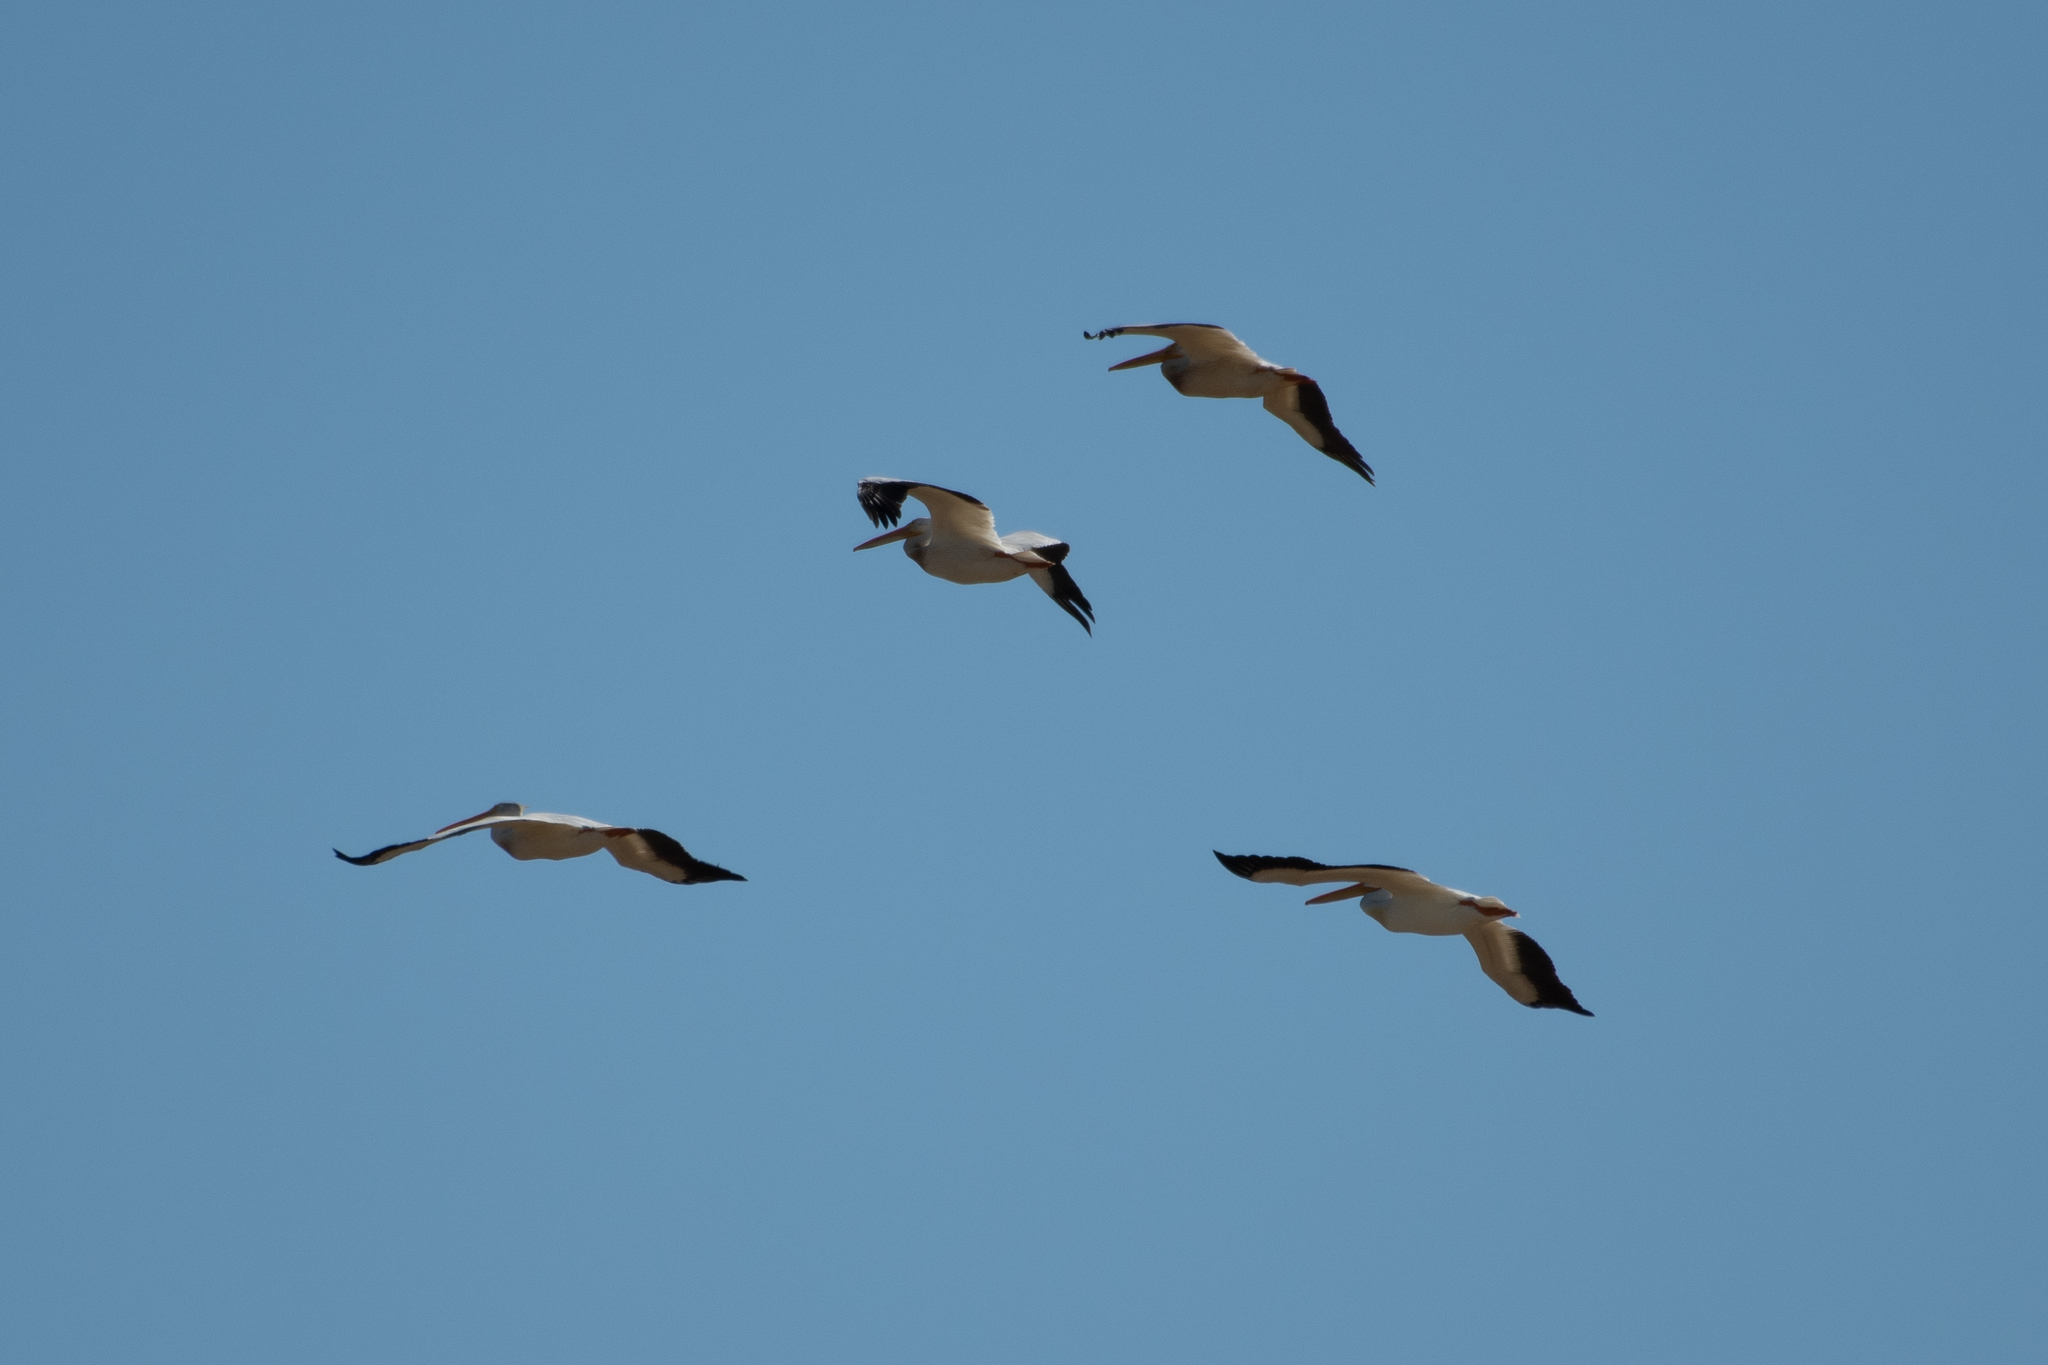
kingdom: Animalia
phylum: Chordata
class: Aves
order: Pelecaniformes
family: Pelecanidae
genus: Pelecanus
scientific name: Pelecanus erythrorhynchos
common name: American white pelican
